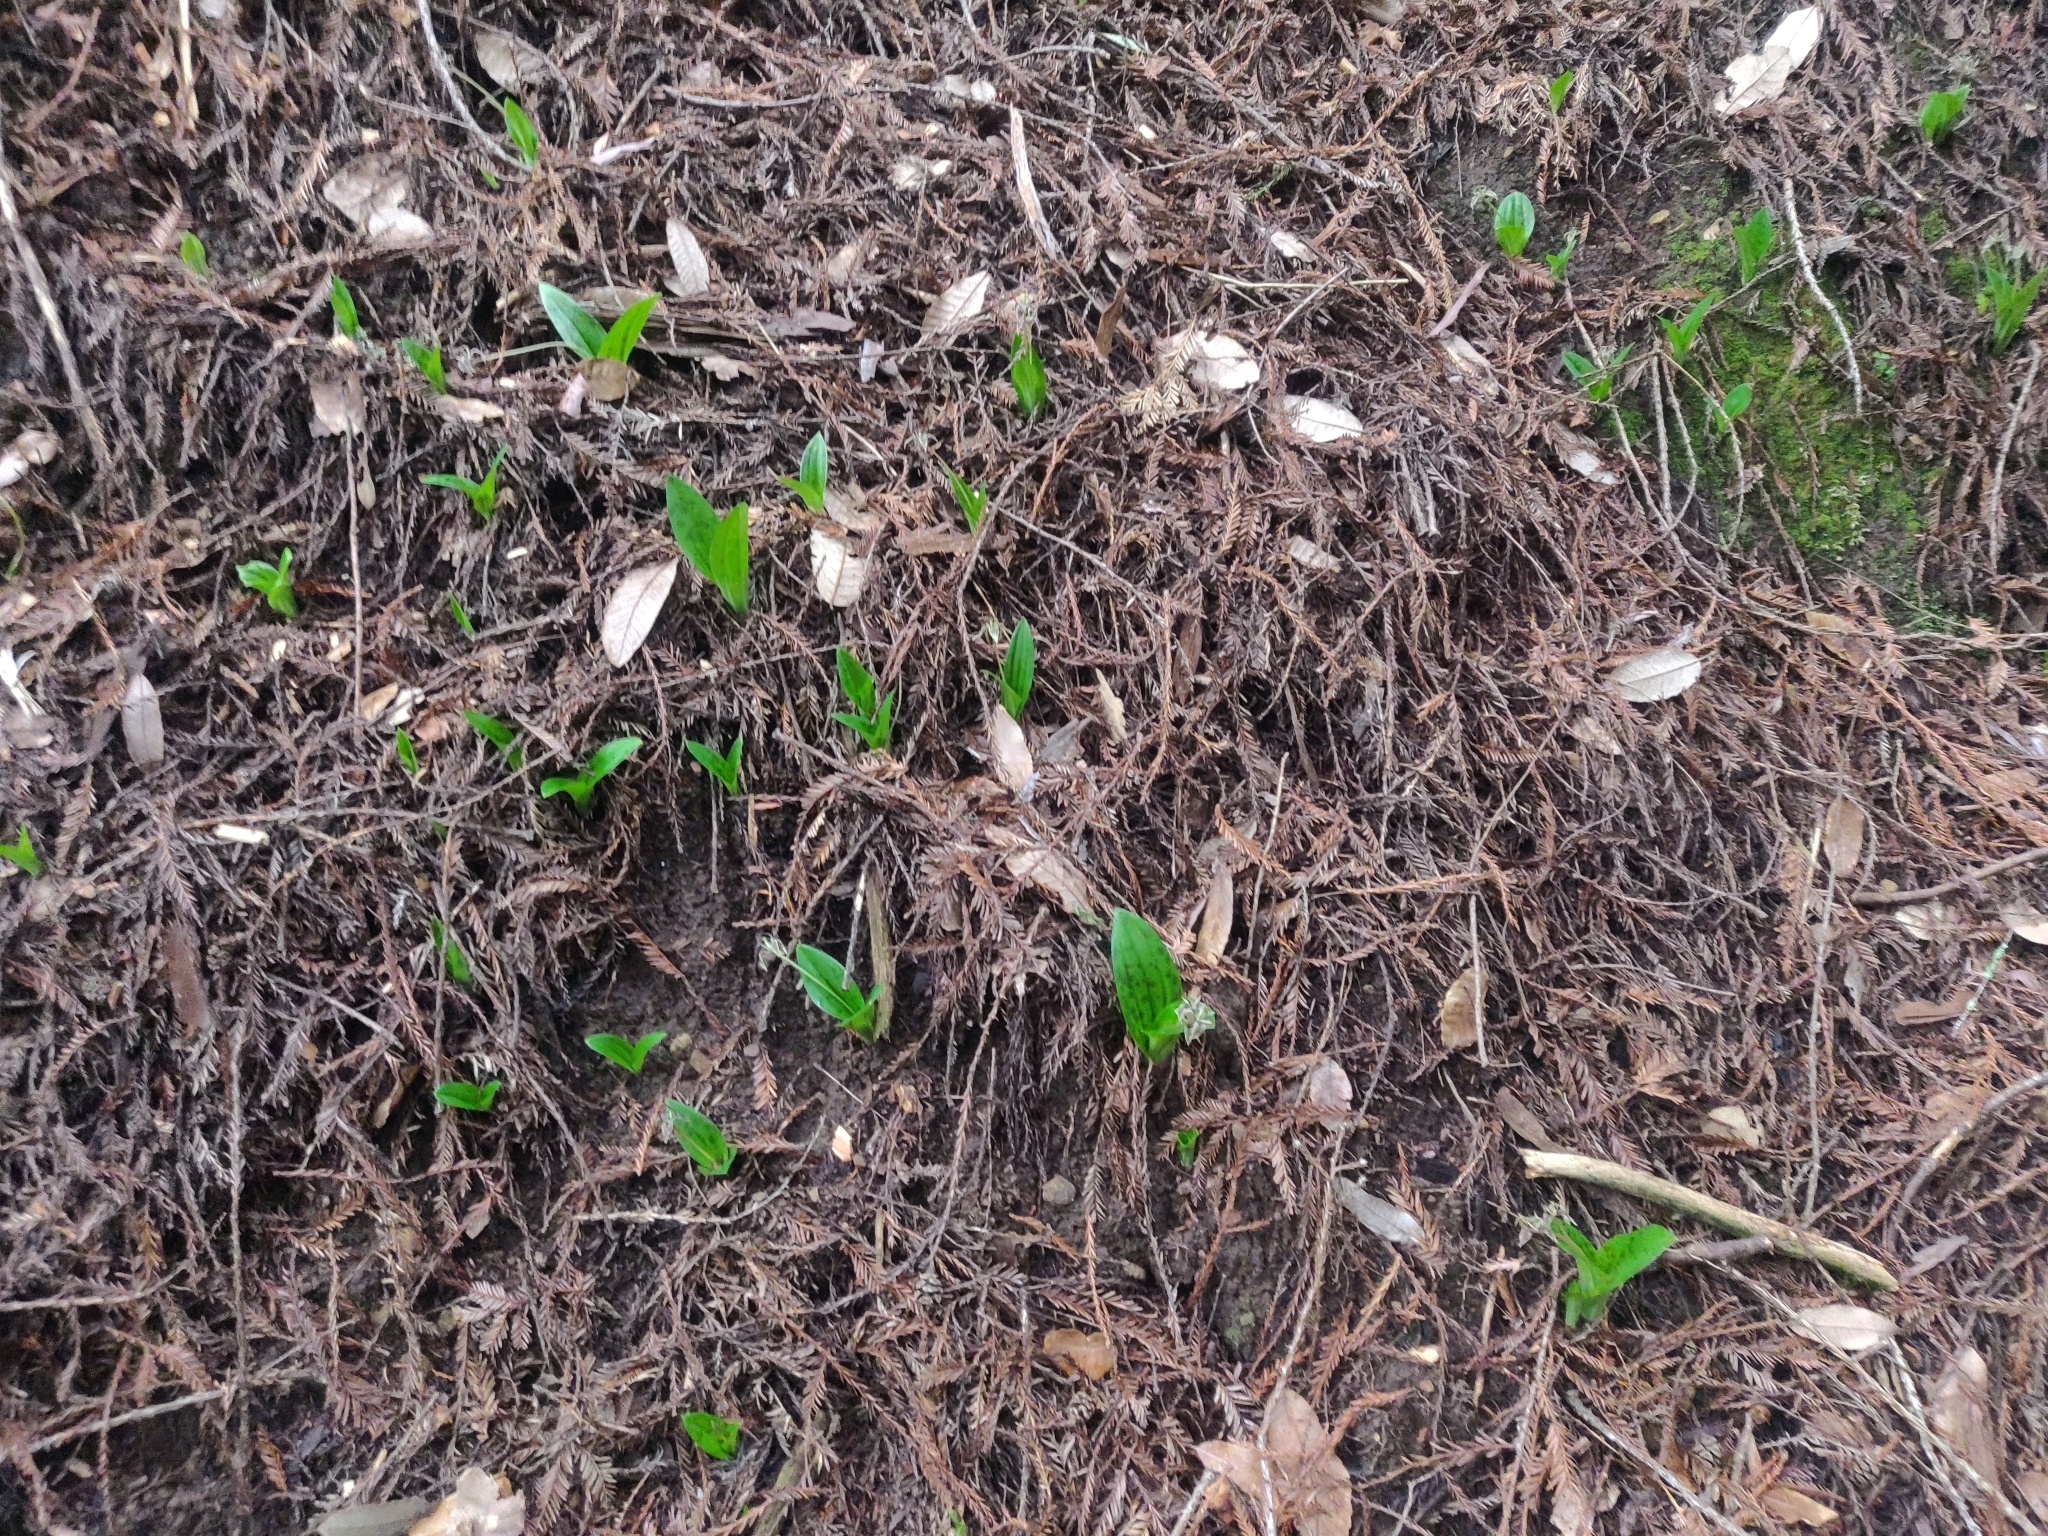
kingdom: Plantae
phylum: Tracheophyta
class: Liliopsida
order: Liliales
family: Liliaceae
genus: Scoliopus
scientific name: Scoliopus bigelovii
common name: Foetid adder's-tongue
